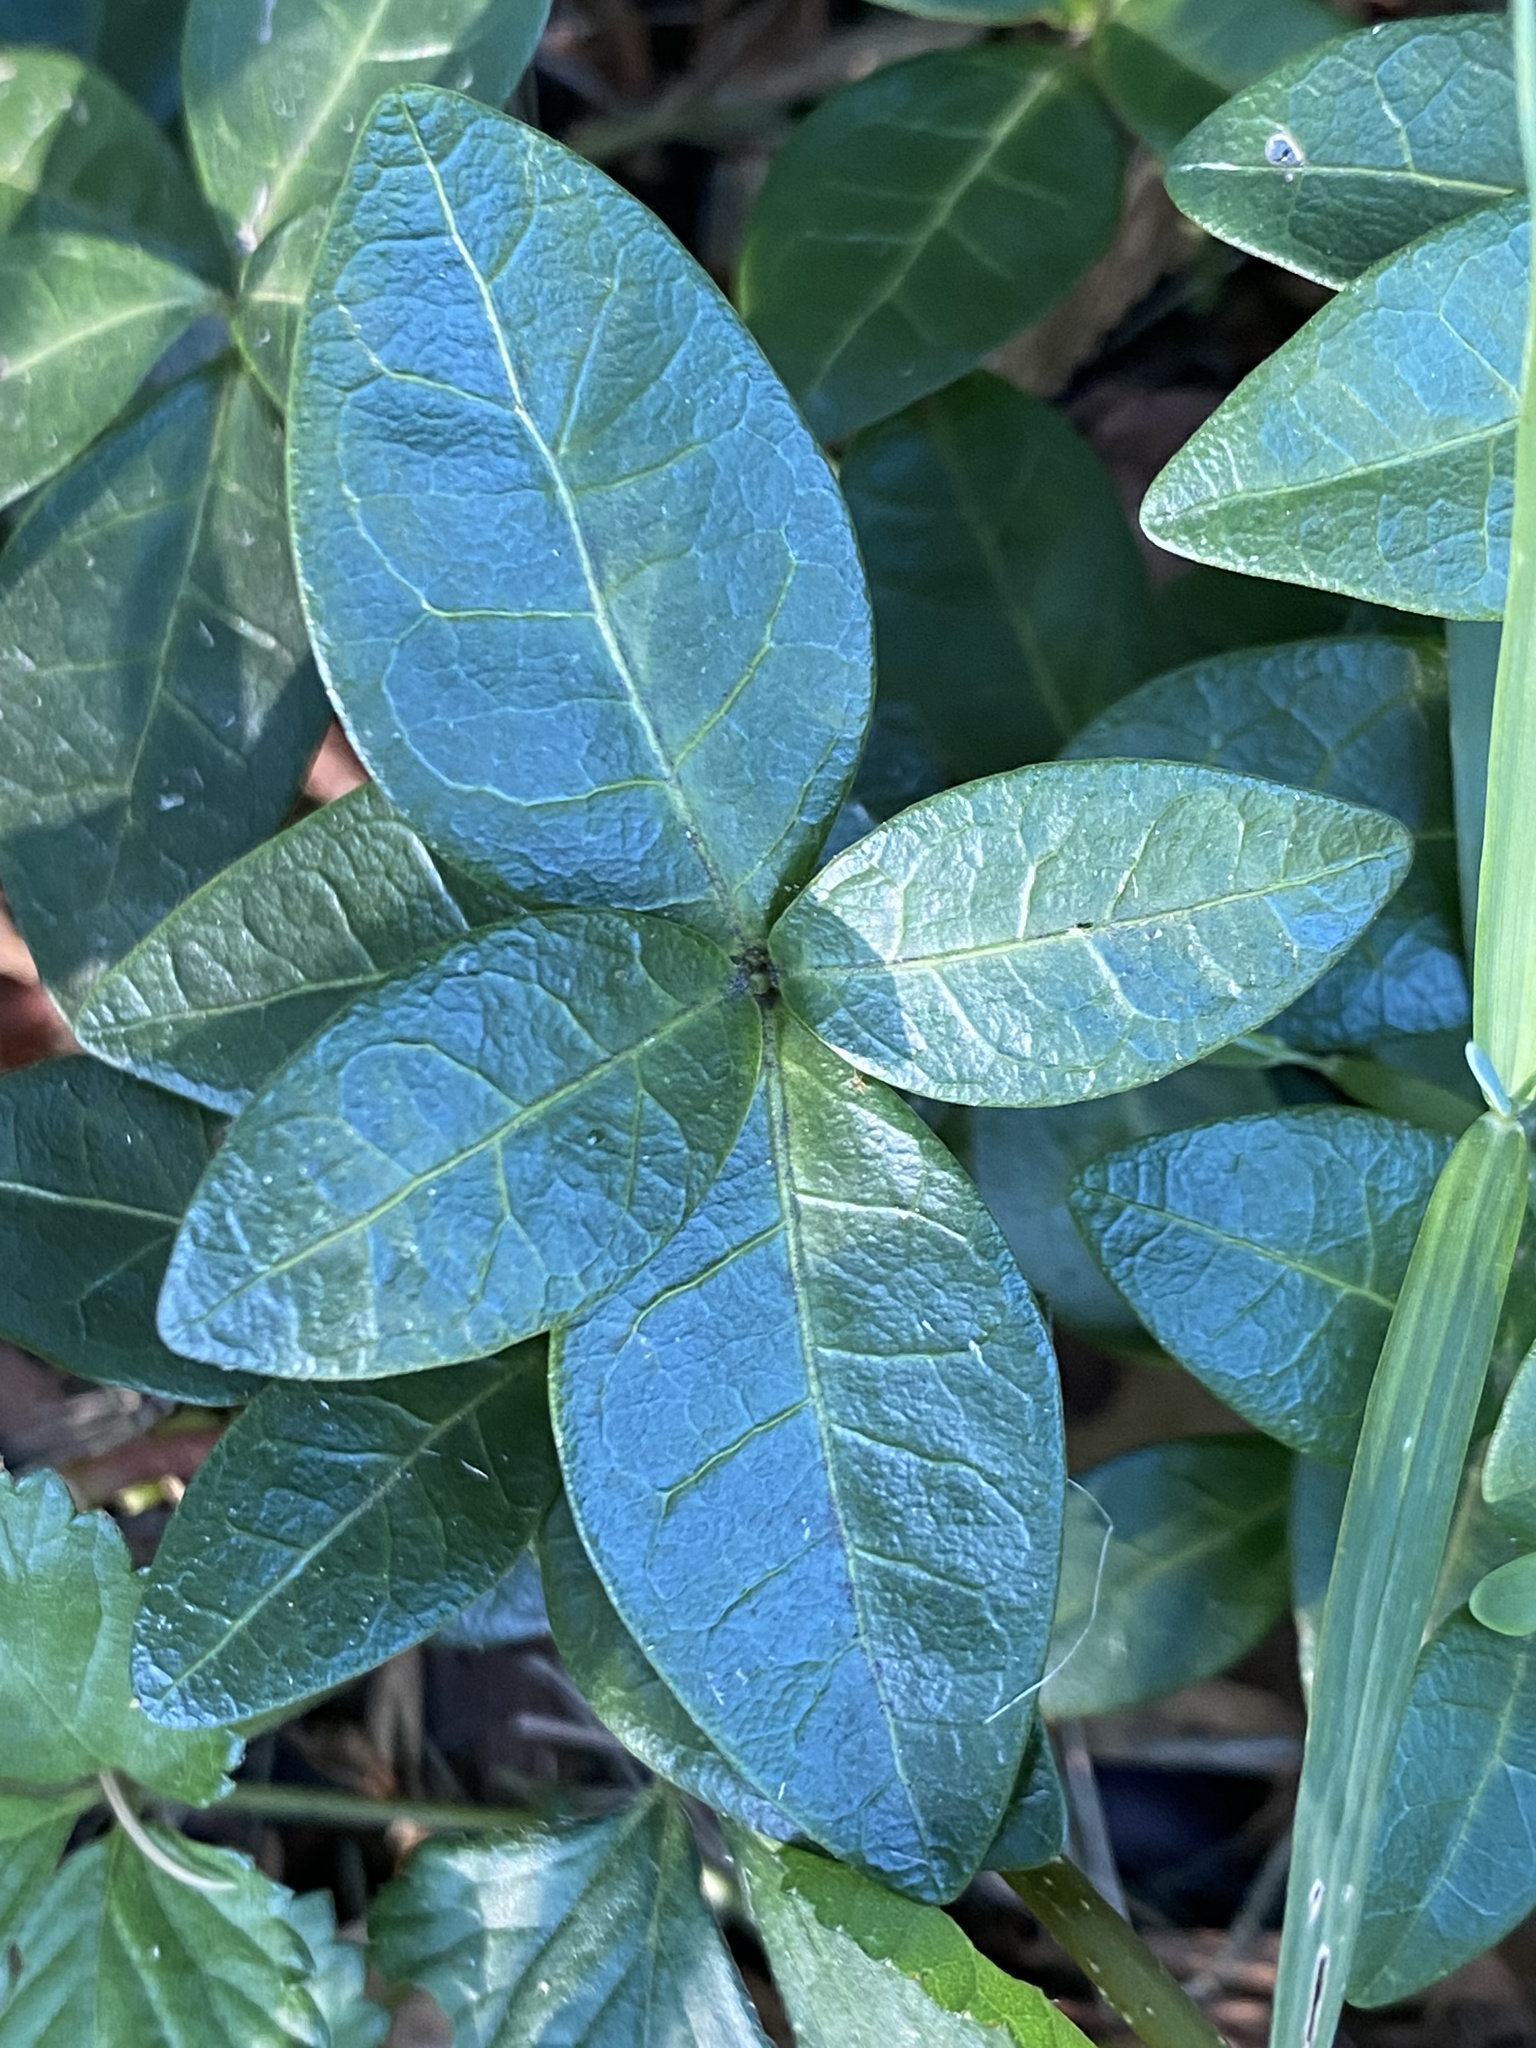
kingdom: Plantae
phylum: Tracheophyta
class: Magnoliopsida
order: Gentianales
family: Apocynaceae
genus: Vinca
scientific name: Vinca minor
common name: Lesser periwinkle
